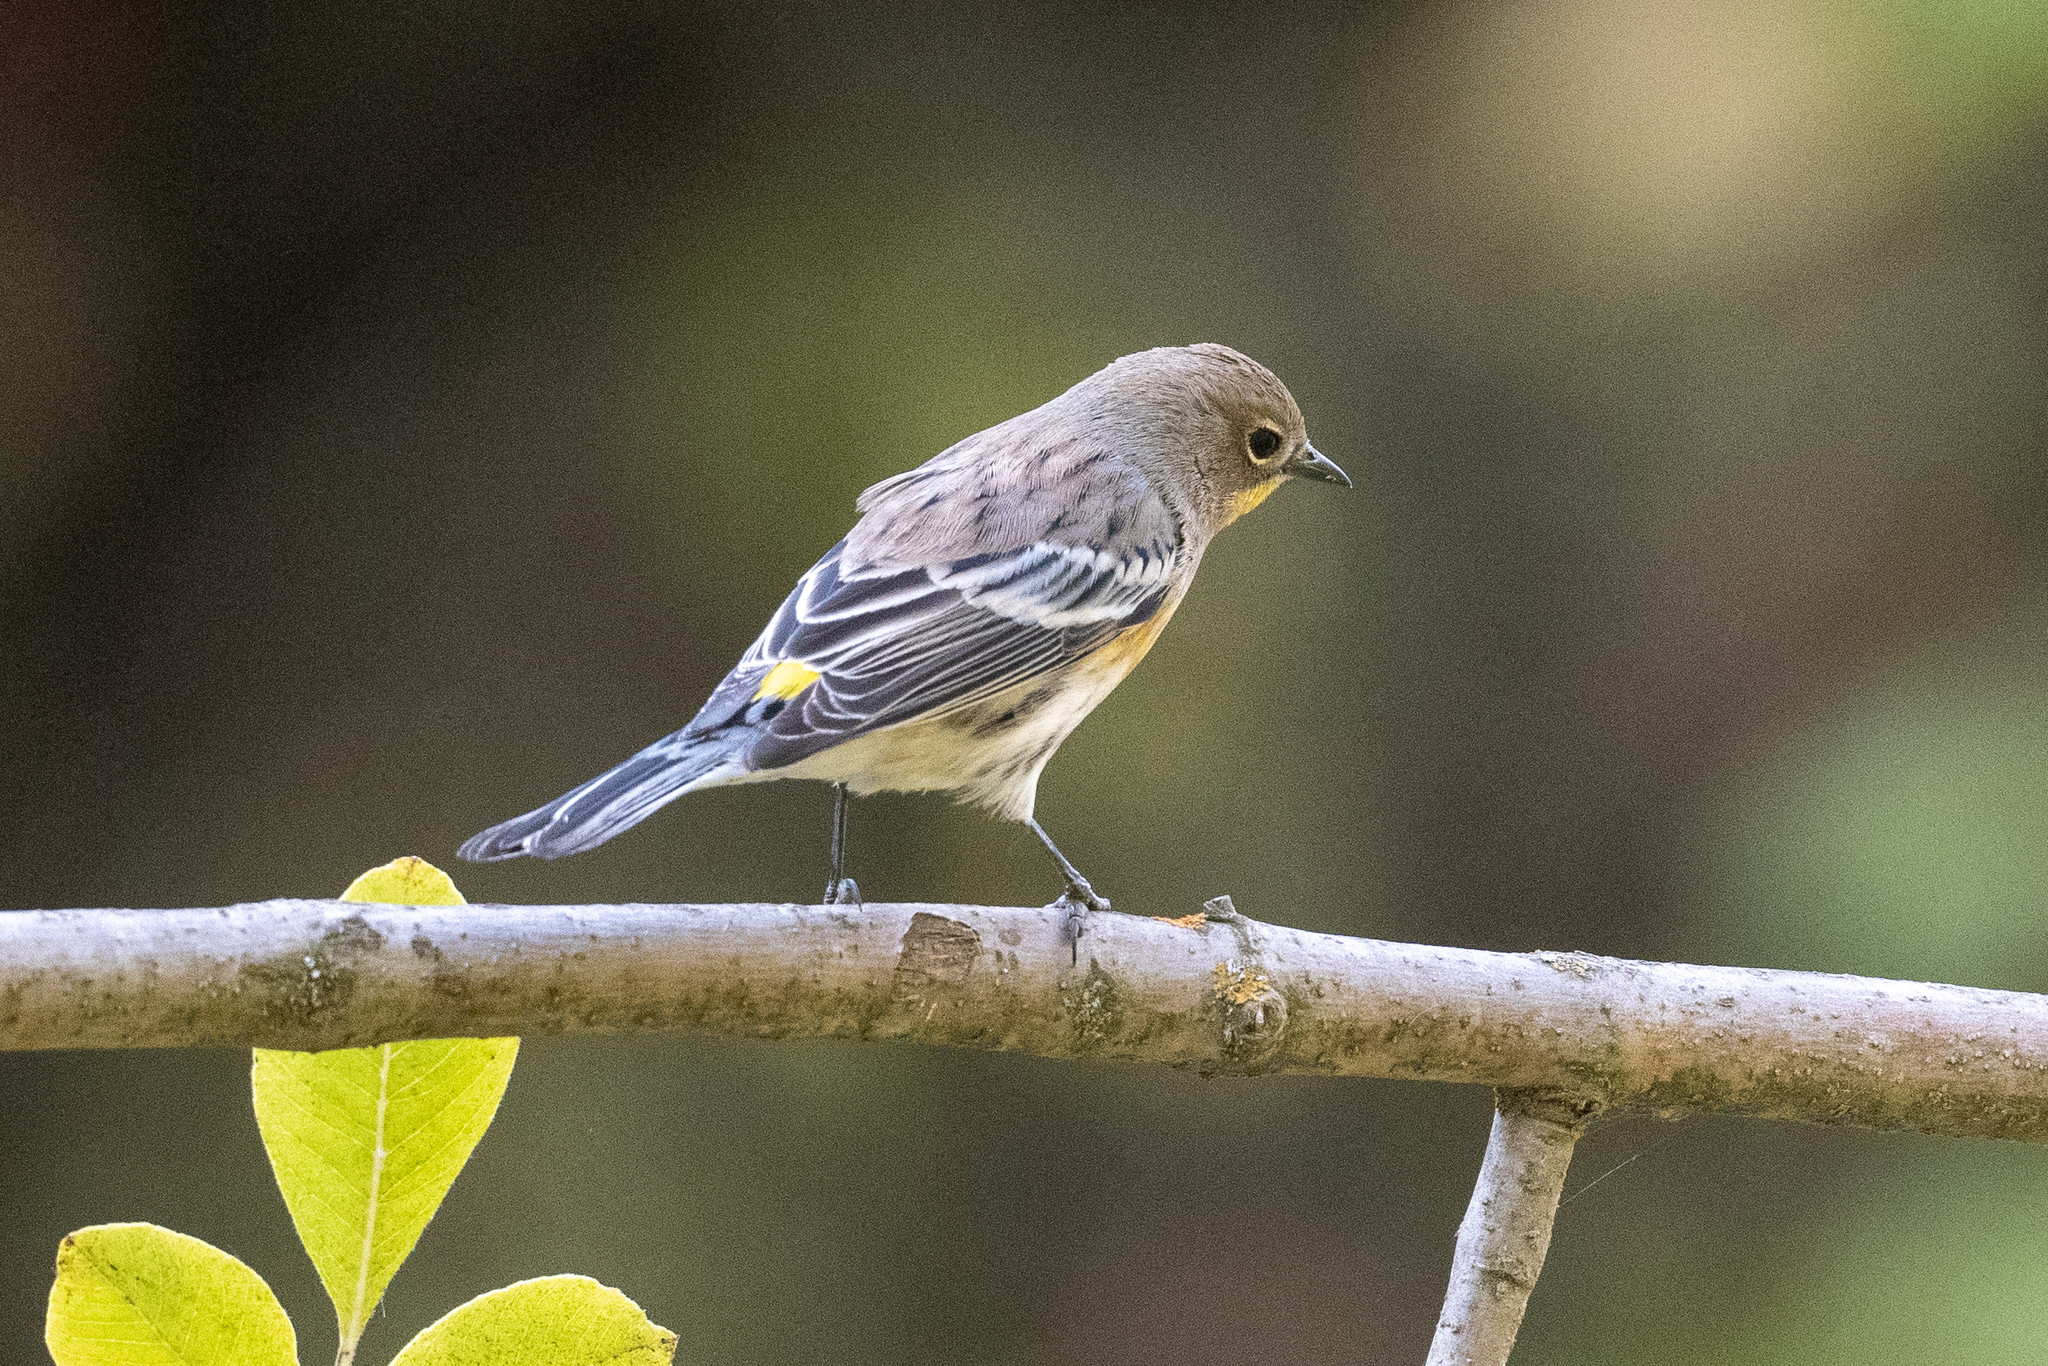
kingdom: Animalia
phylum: Chordata
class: Aves
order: Passeriformes
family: Parulidae
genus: Setophaga
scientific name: Setophaga coronata
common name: Myrtle warbler
